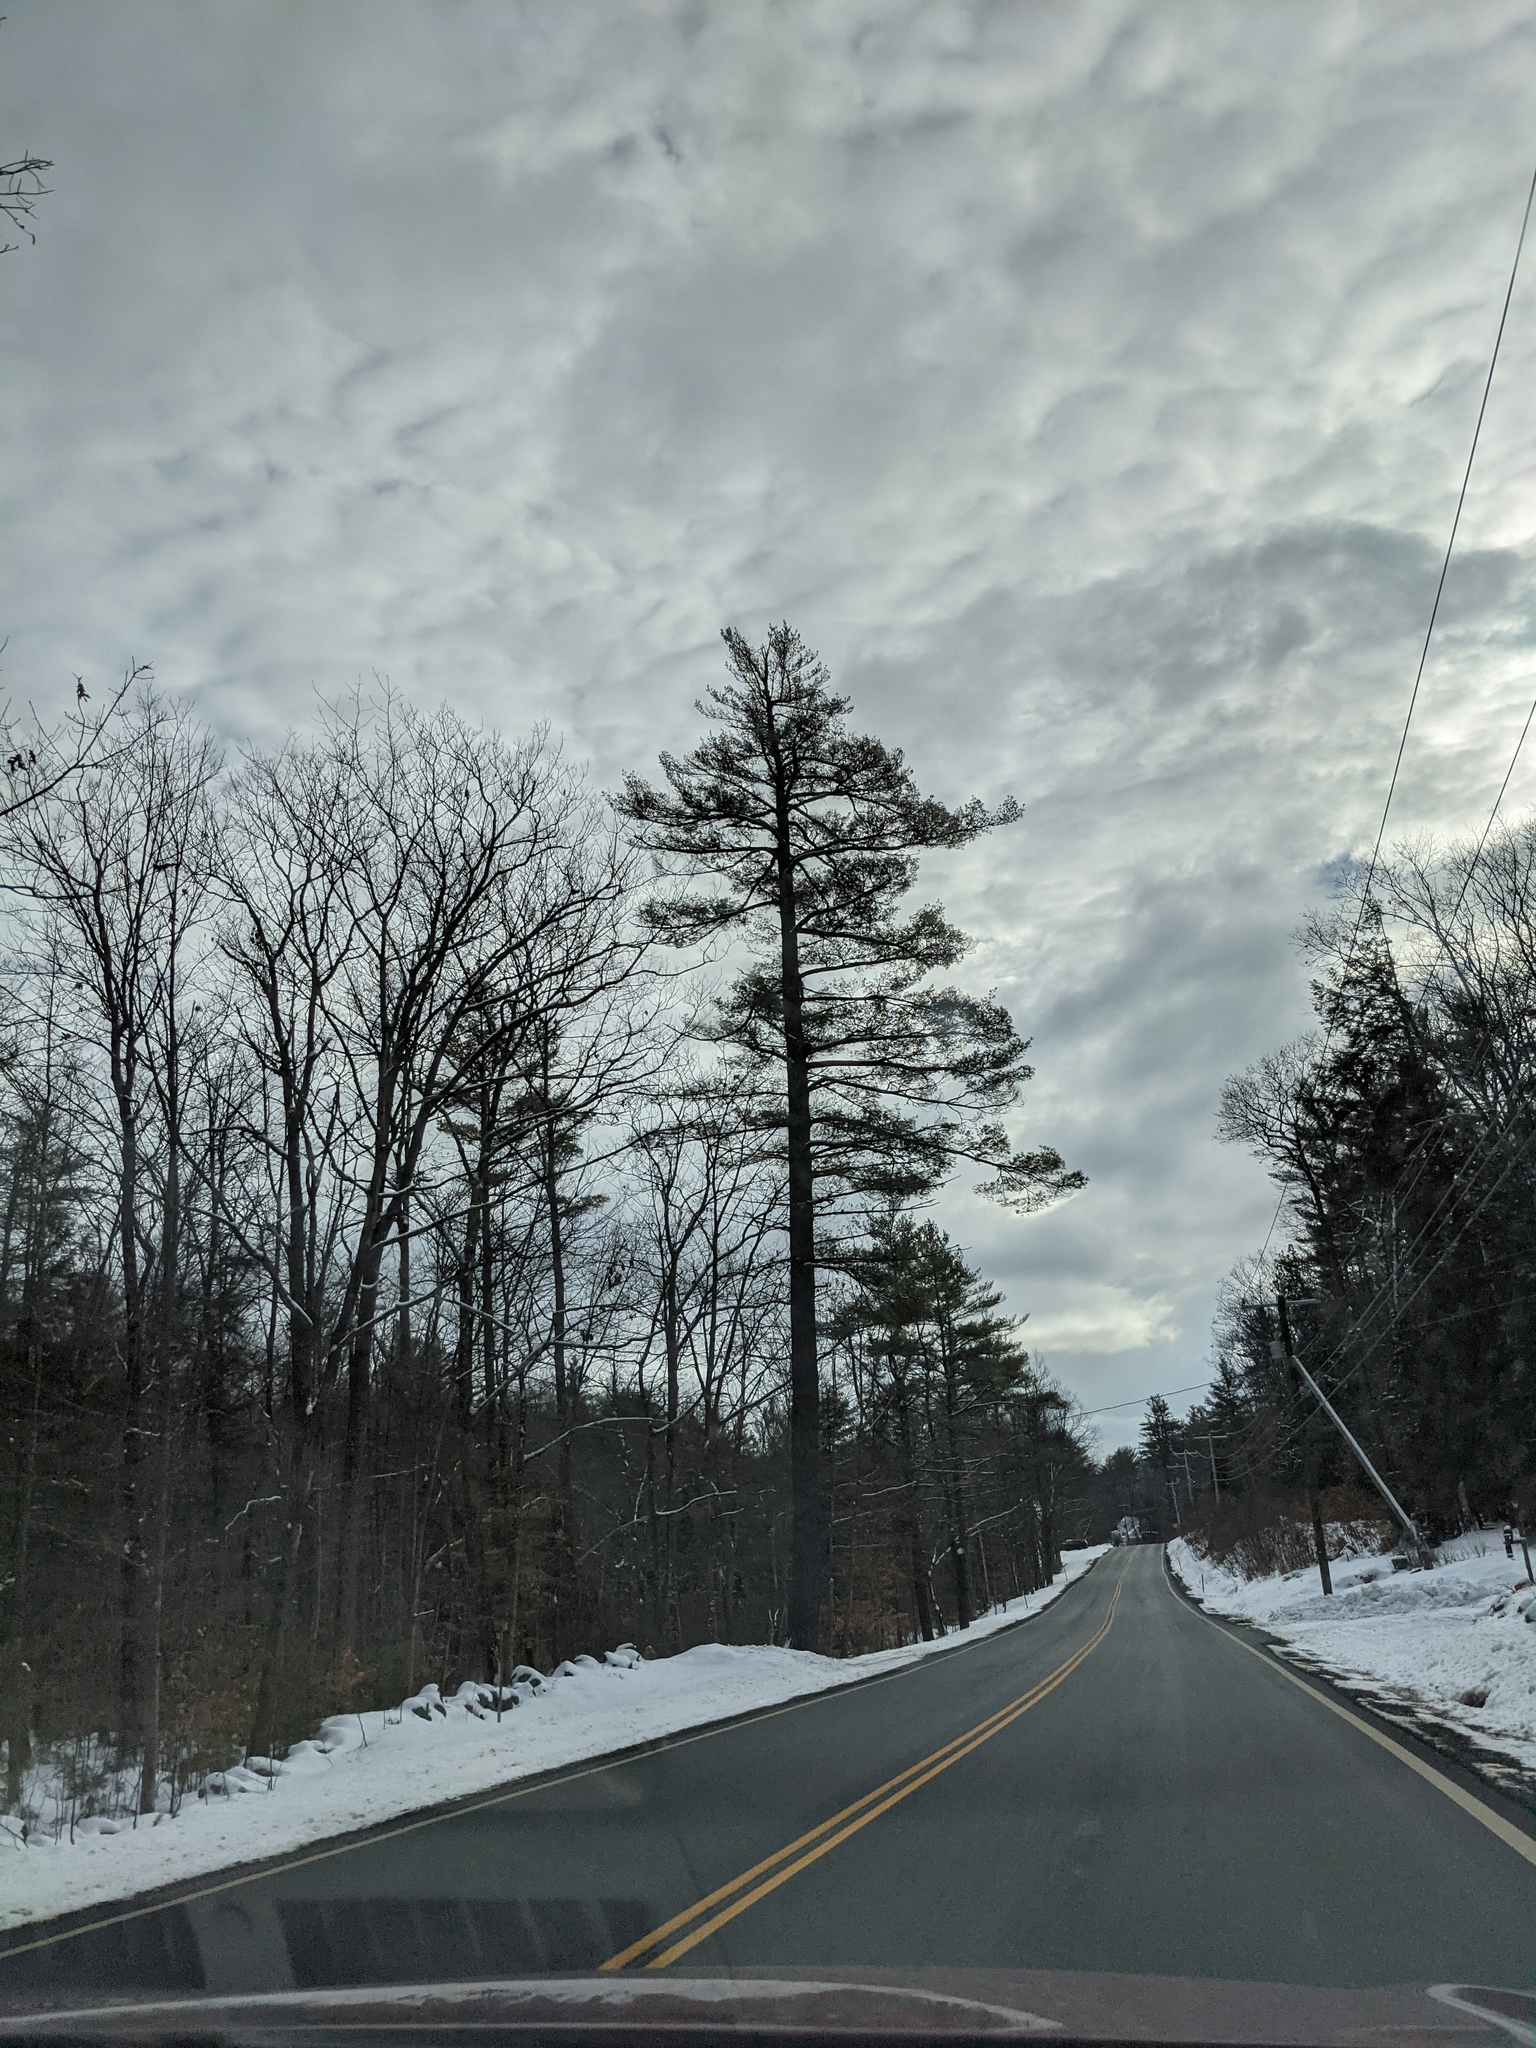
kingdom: Plantae
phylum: Tracheophyta
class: Pinopsida
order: Pinales
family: Pinaceae
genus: Pinus
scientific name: Pinus strobus
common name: Weymouth pine
